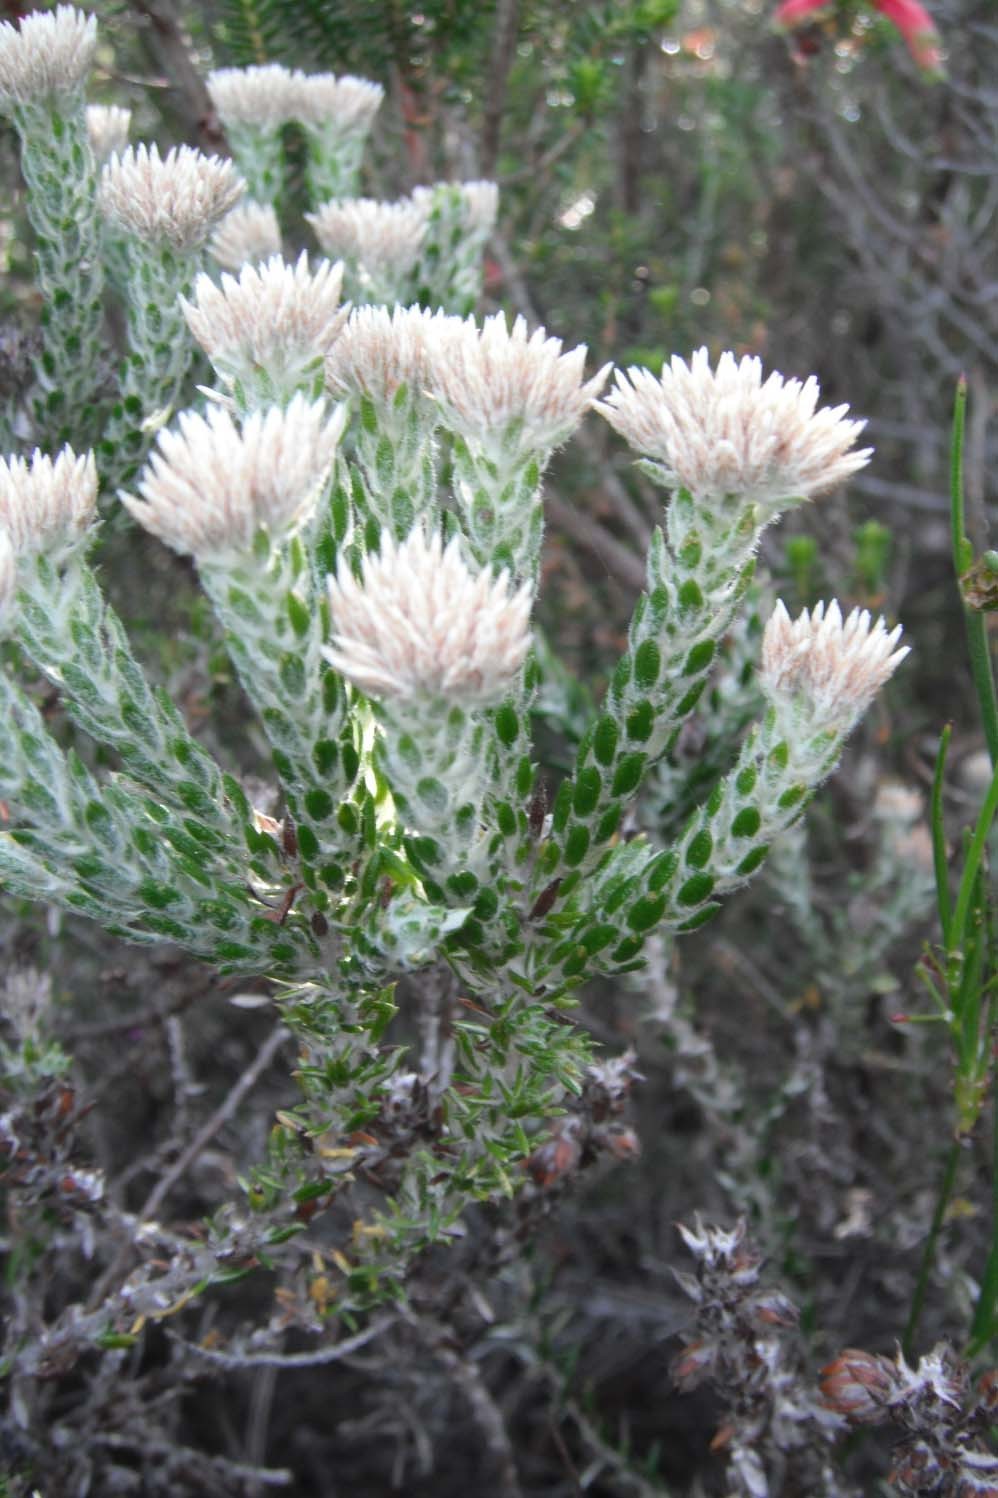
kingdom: Plantae
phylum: Tracheophyta
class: Magnoliopsida
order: Asterales
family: Asteraceae
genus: Metalasia
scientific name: Metalasia pungens
